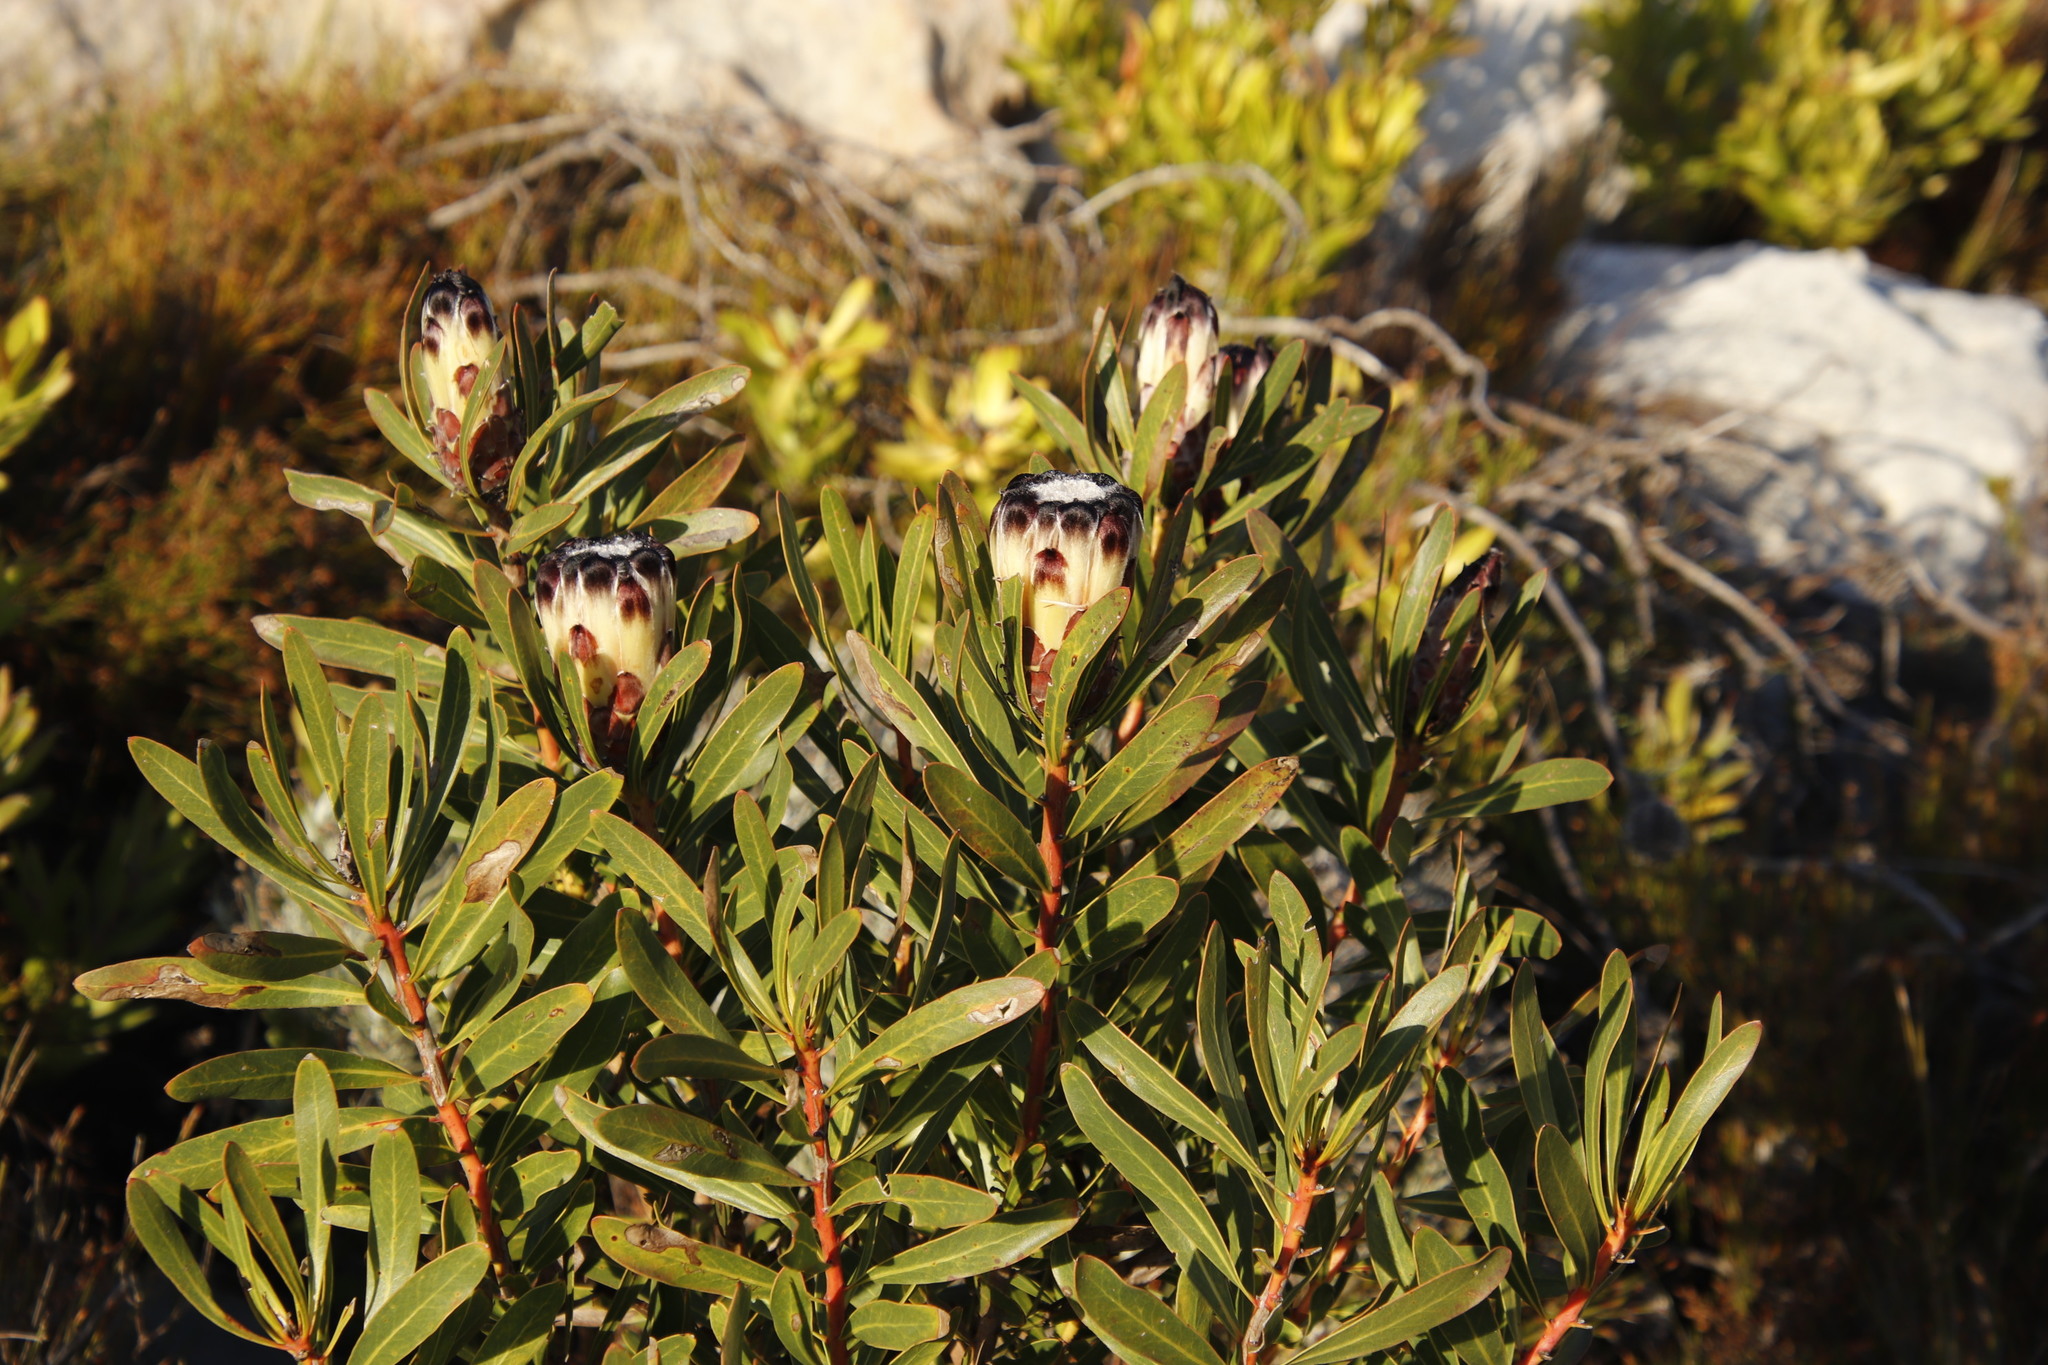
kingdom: Plantae
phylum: Tracheophyta
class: Magnoliopsida
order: Proteales
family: Proteaceae
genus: Protea
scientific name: Protea lepidocarpodendron
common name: Black-bearded protea
